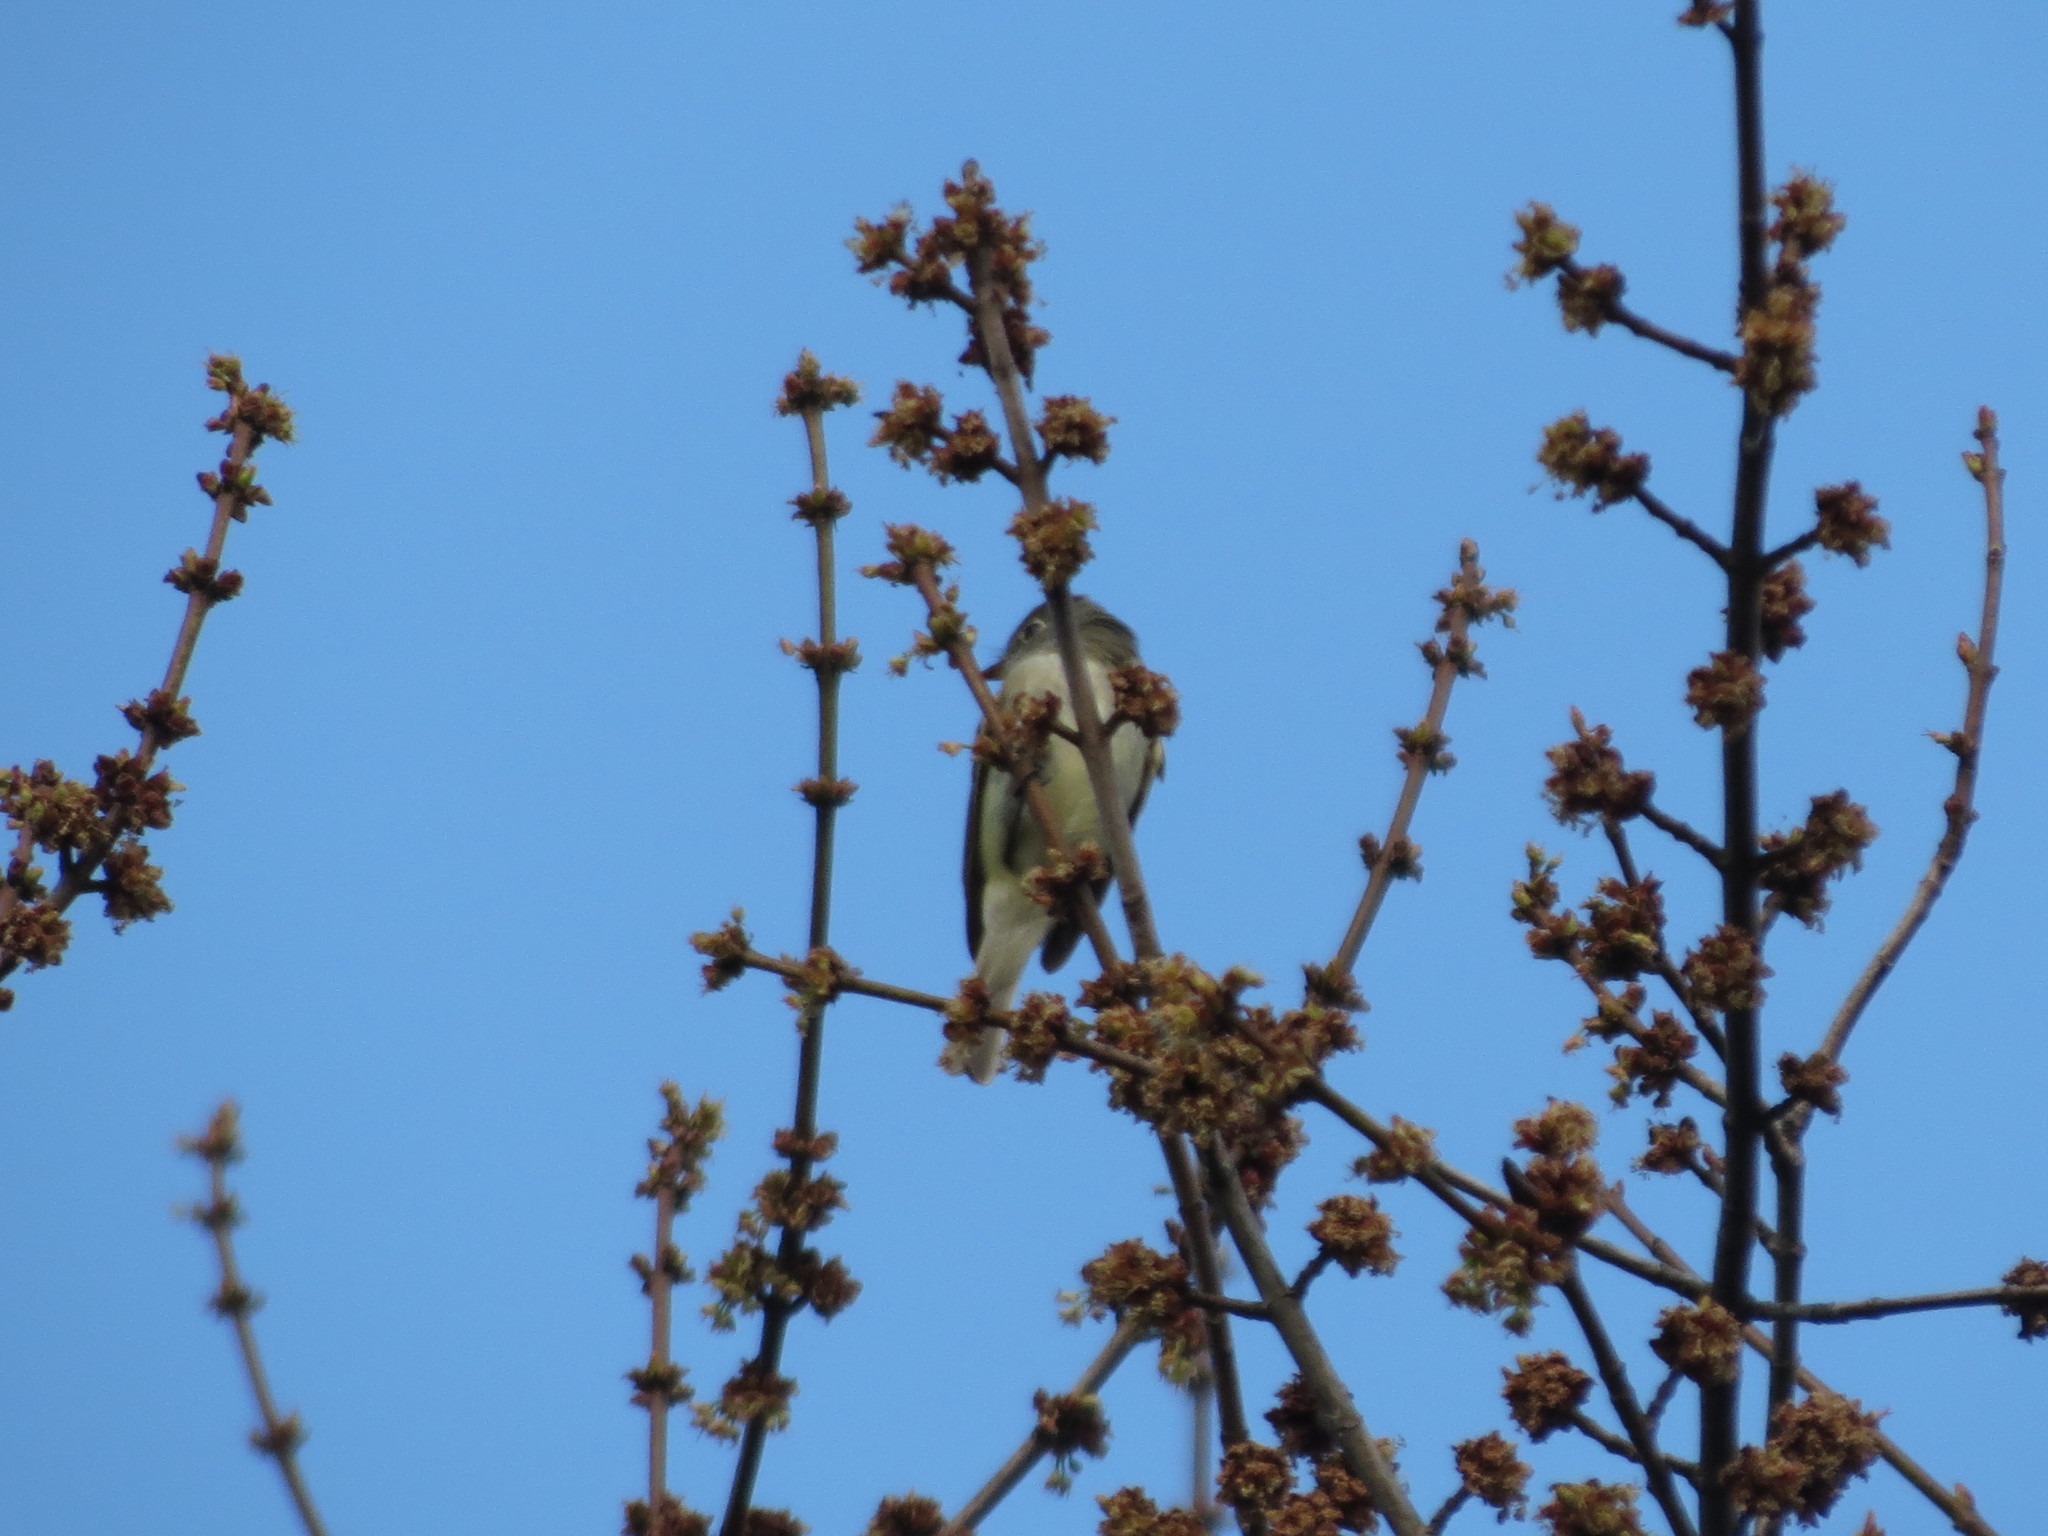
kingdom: Animalia
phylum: Chordata
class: Aves
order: Passeriformes
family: Tyrannidae
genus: Empidonax
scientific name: Empidonax minimus
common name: Least flycatcher
